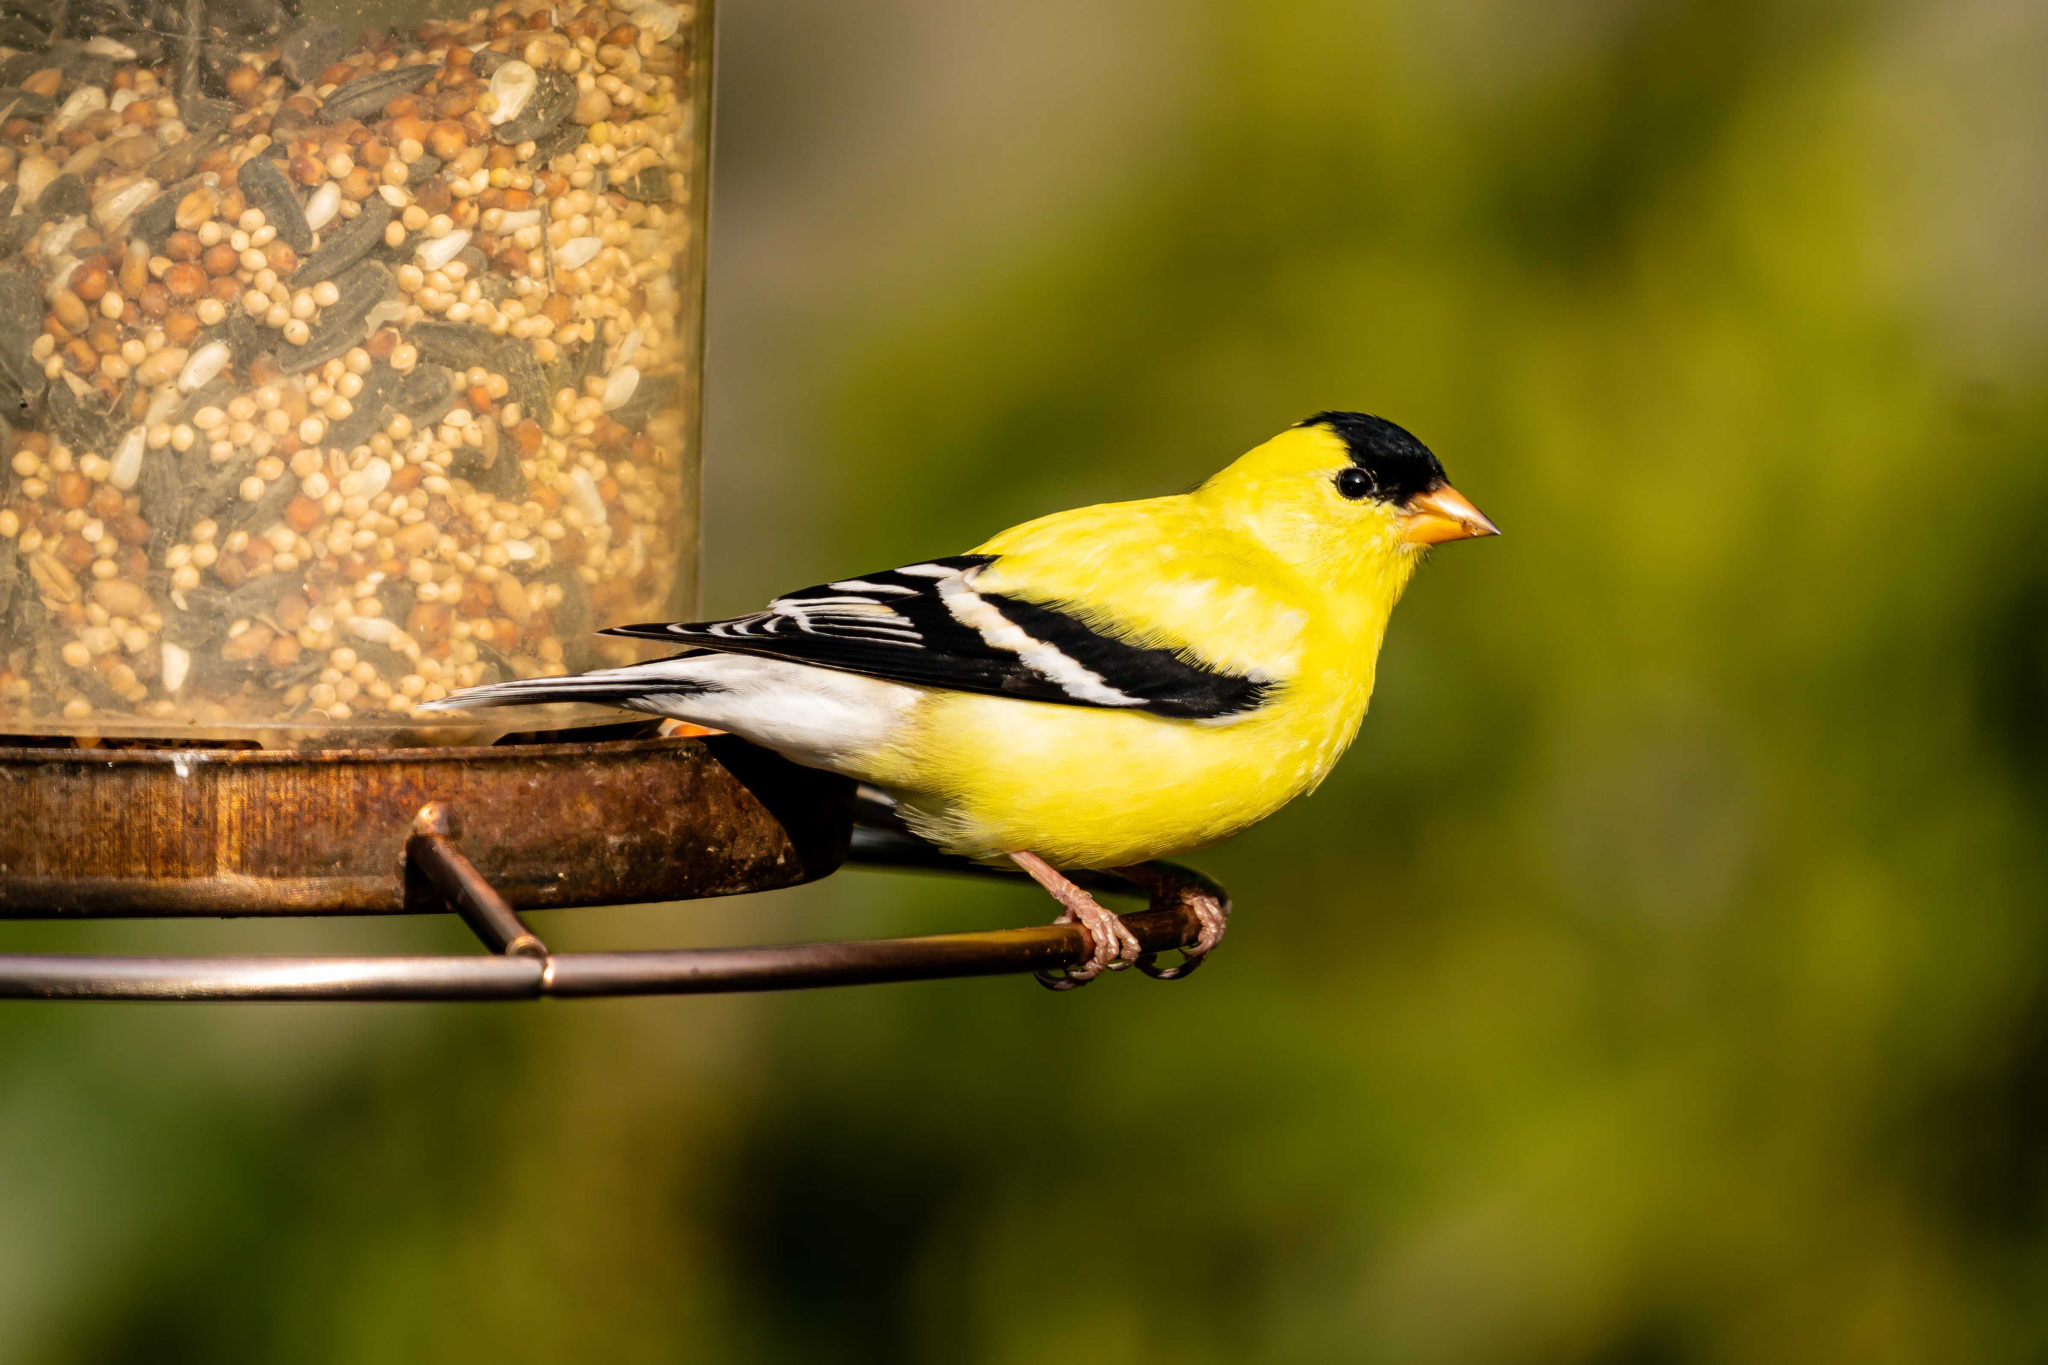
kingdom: Animalia
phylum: Chordata
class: Aves
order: Passeriformes
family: Fringillidae
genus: Spinus
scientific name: Spinus tristis
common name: American goldfinch
